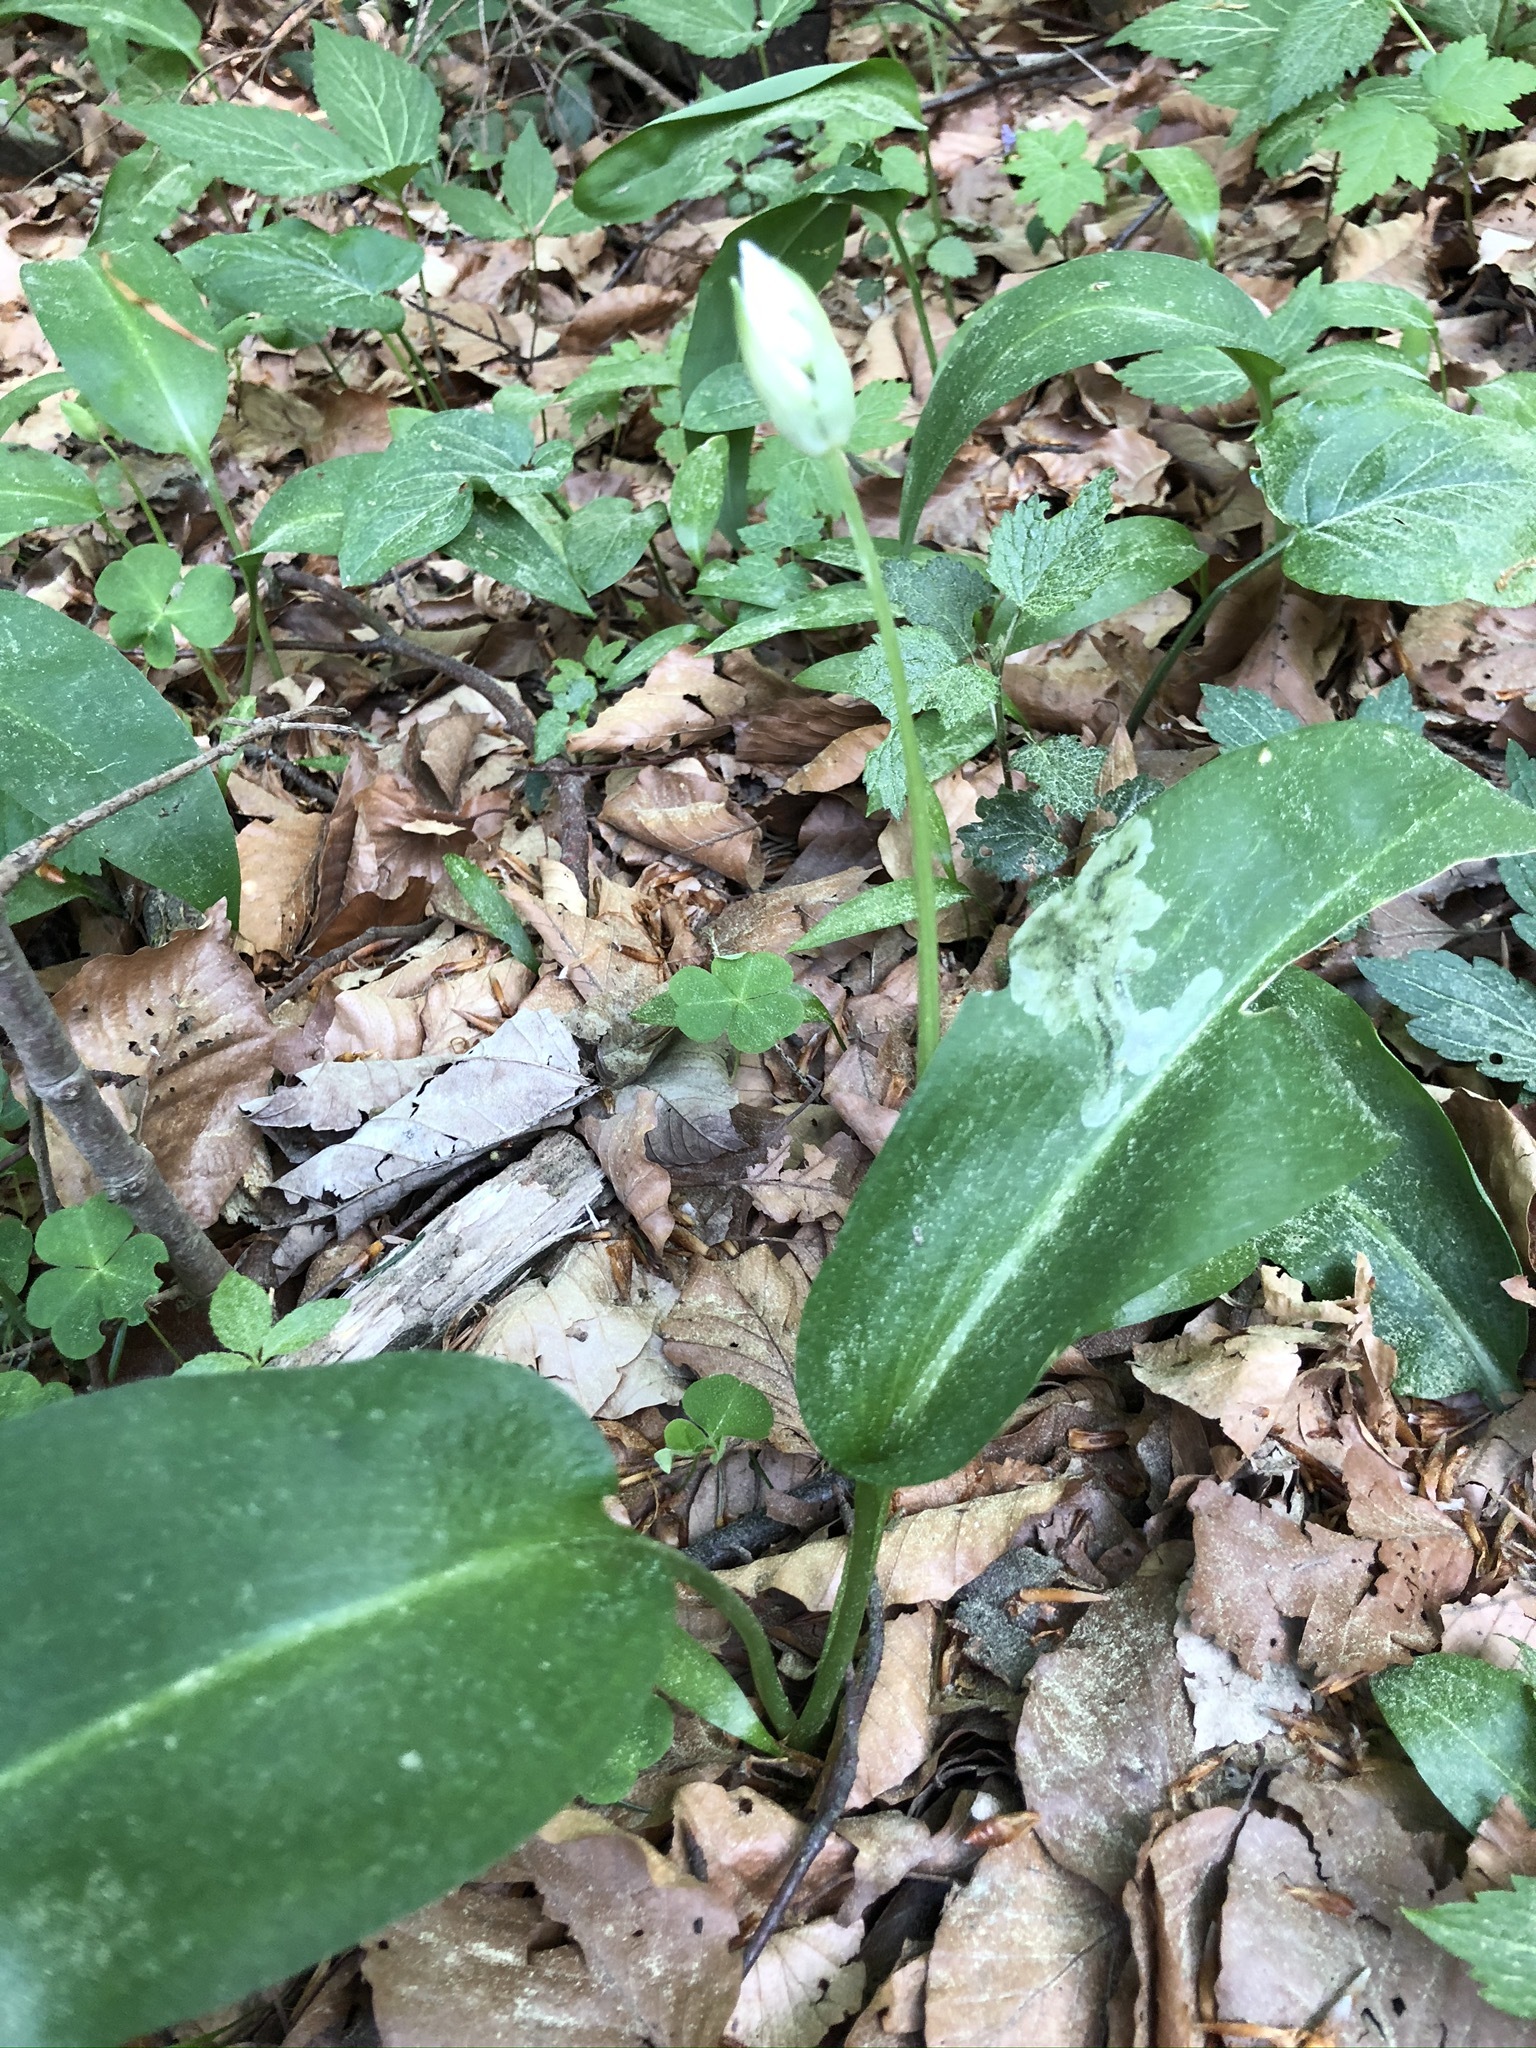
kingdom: Plantae
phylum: Tracheophyta
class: Liliopsida
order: Asparagales
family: Amaryllidaceae
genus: Allium
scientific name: Allium ursinum
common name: Ramsons
